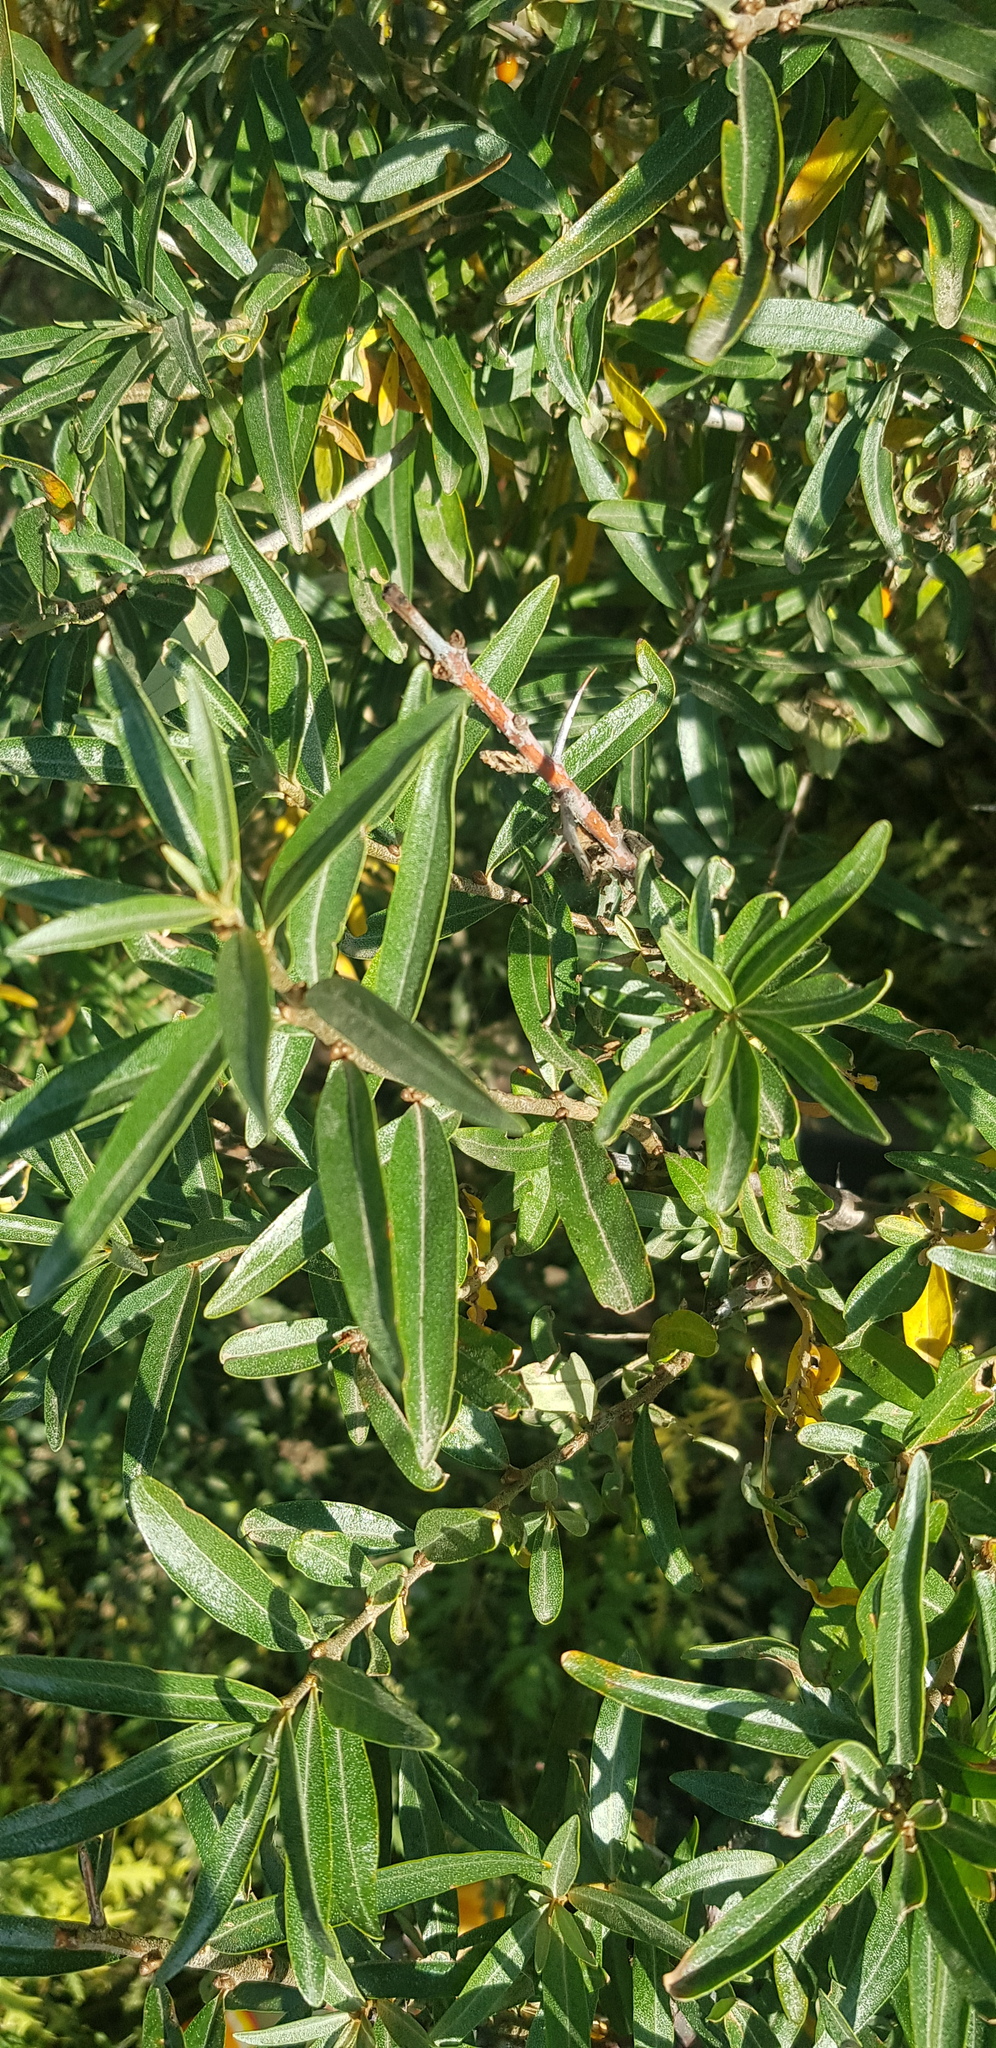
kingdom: Plantae
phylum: Tracheophyta
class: Magnoliopsida
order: Rosales
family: Elaeagnaceae
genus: Hippophae
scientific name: Hippophae rhamnoides
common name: Sea-buckthorn
